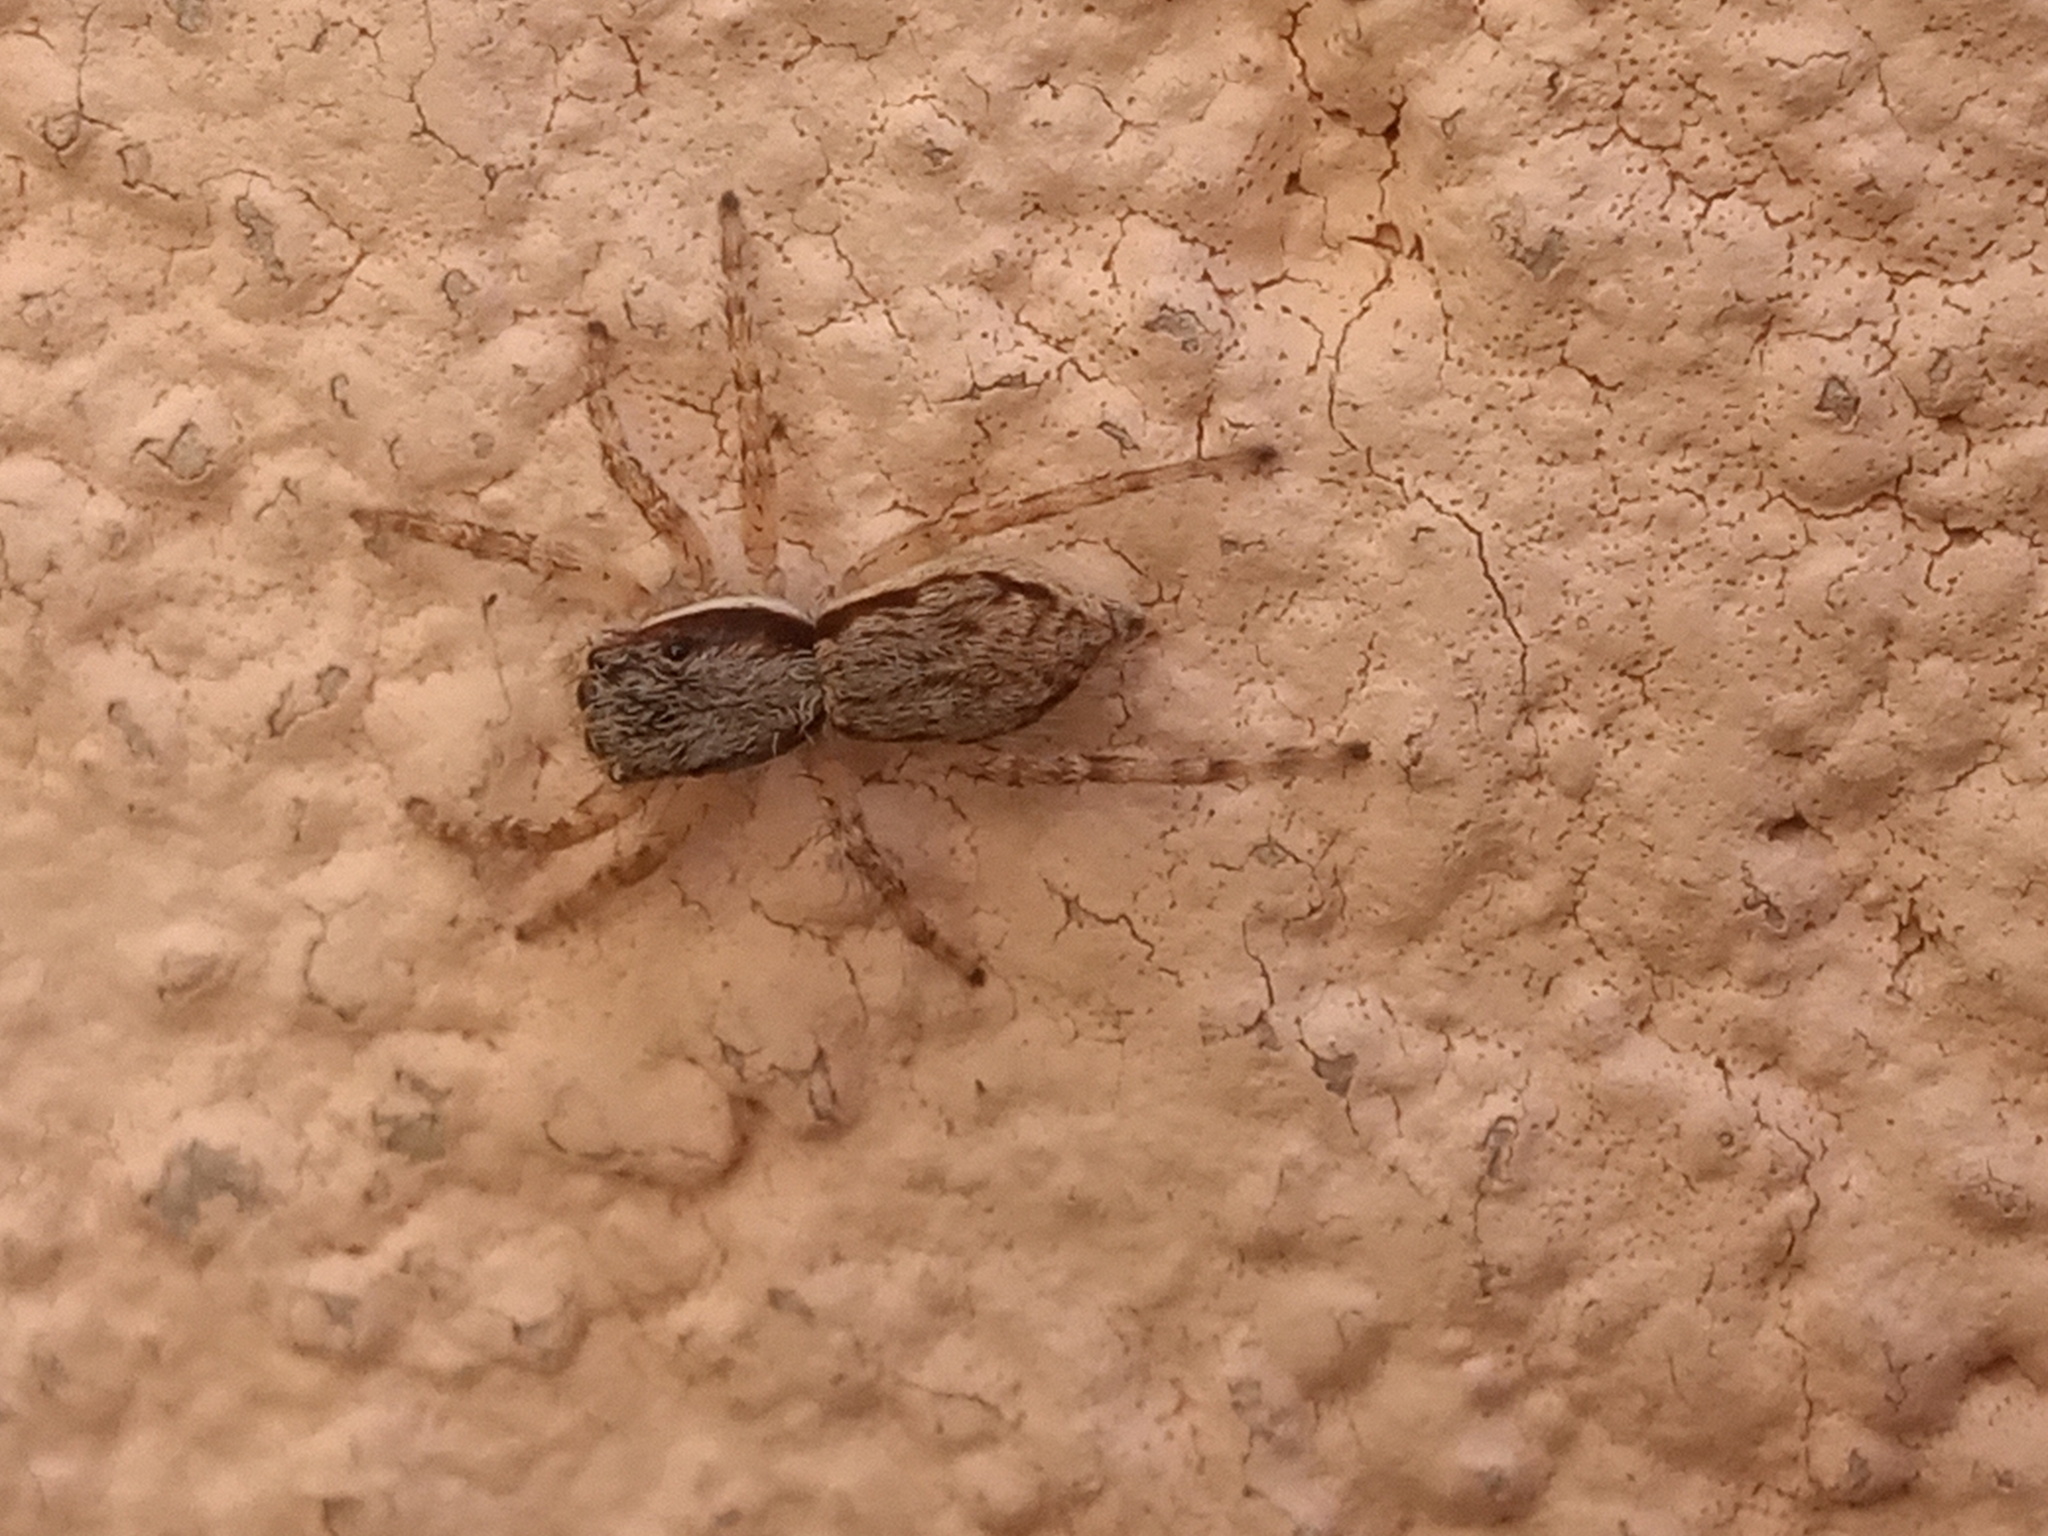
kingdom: Animalia
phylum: Arthropoda
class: Arachnida
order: Araneae
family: Salticidae
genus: Menemerus
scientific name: Menemerus bivittatus
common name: Gray wall jumper
